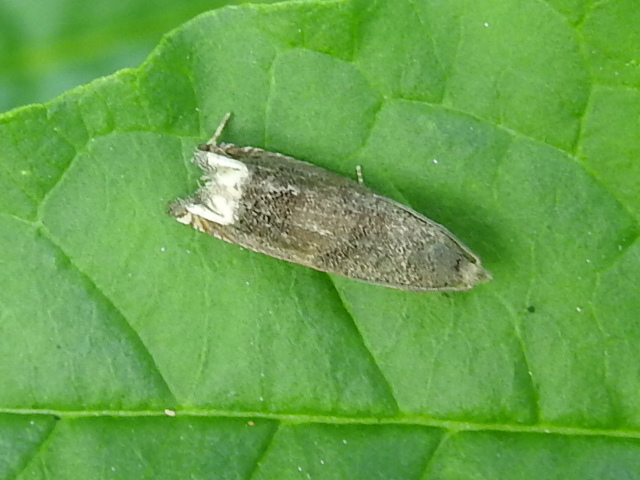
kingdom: Animalia
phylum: Arthropoda
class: Insecta
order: Lepidoptera
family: Tortricidae
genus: Epiblema
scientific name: Epiblema strenuana
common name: Ragweed borer moth
